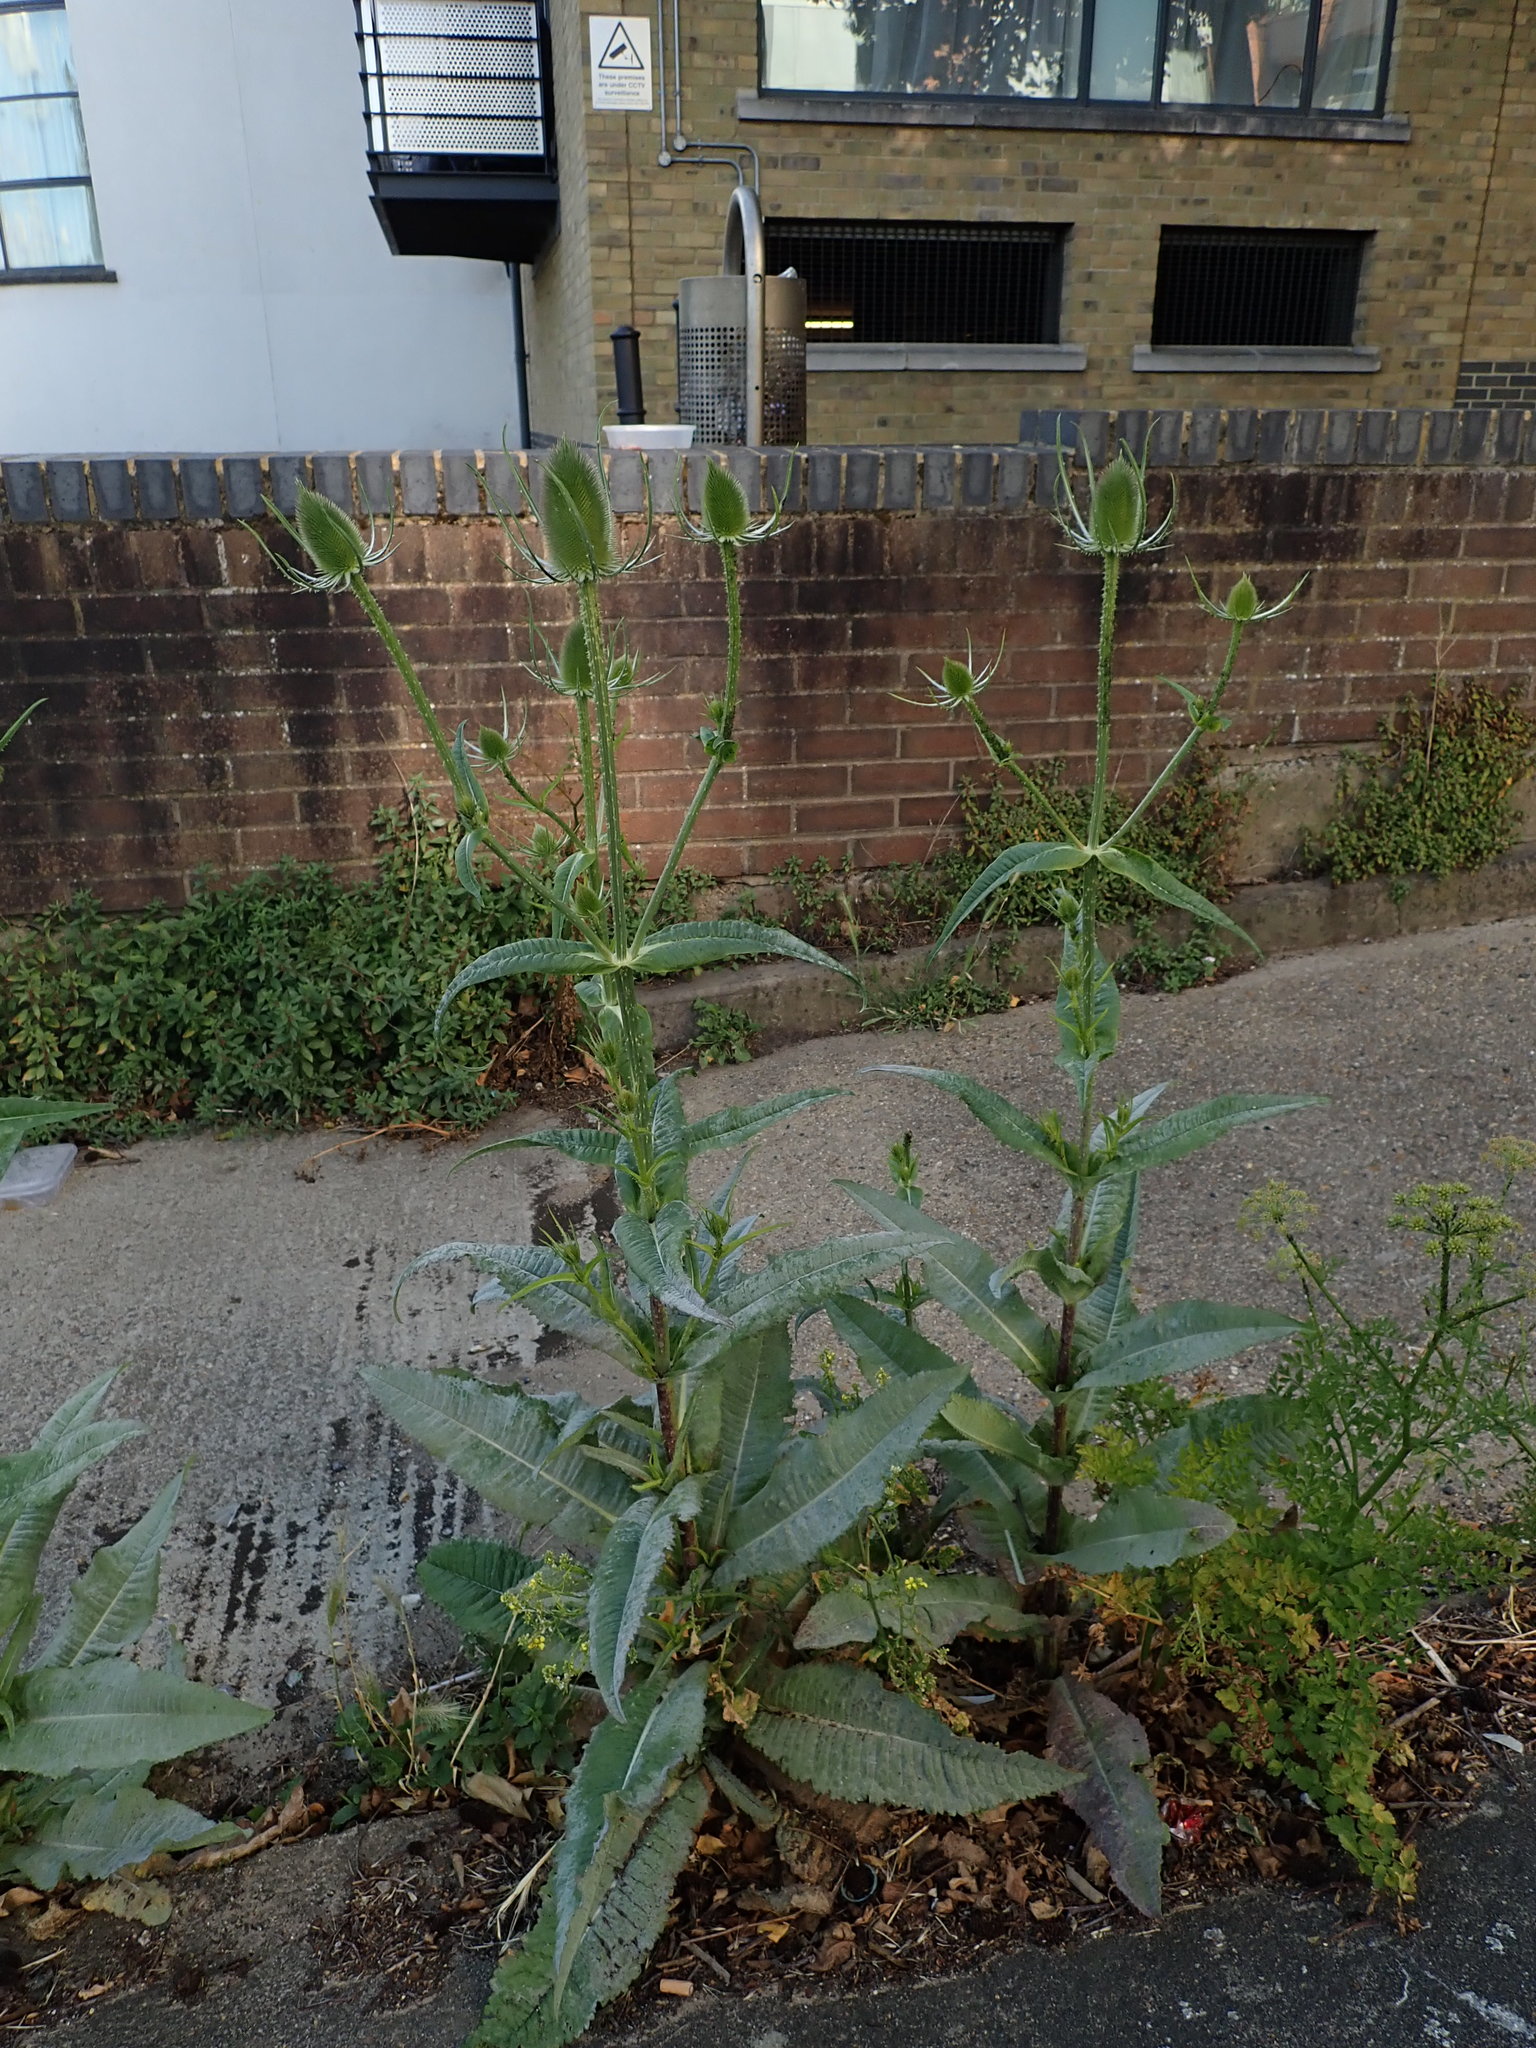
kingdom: Plantae
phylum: Tracheophyta
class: Magnoliopsida
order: Dipsacales
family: Caprifoliaceae
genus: Dipsacus
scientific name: Dipsacus fullonum
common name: Teasel
